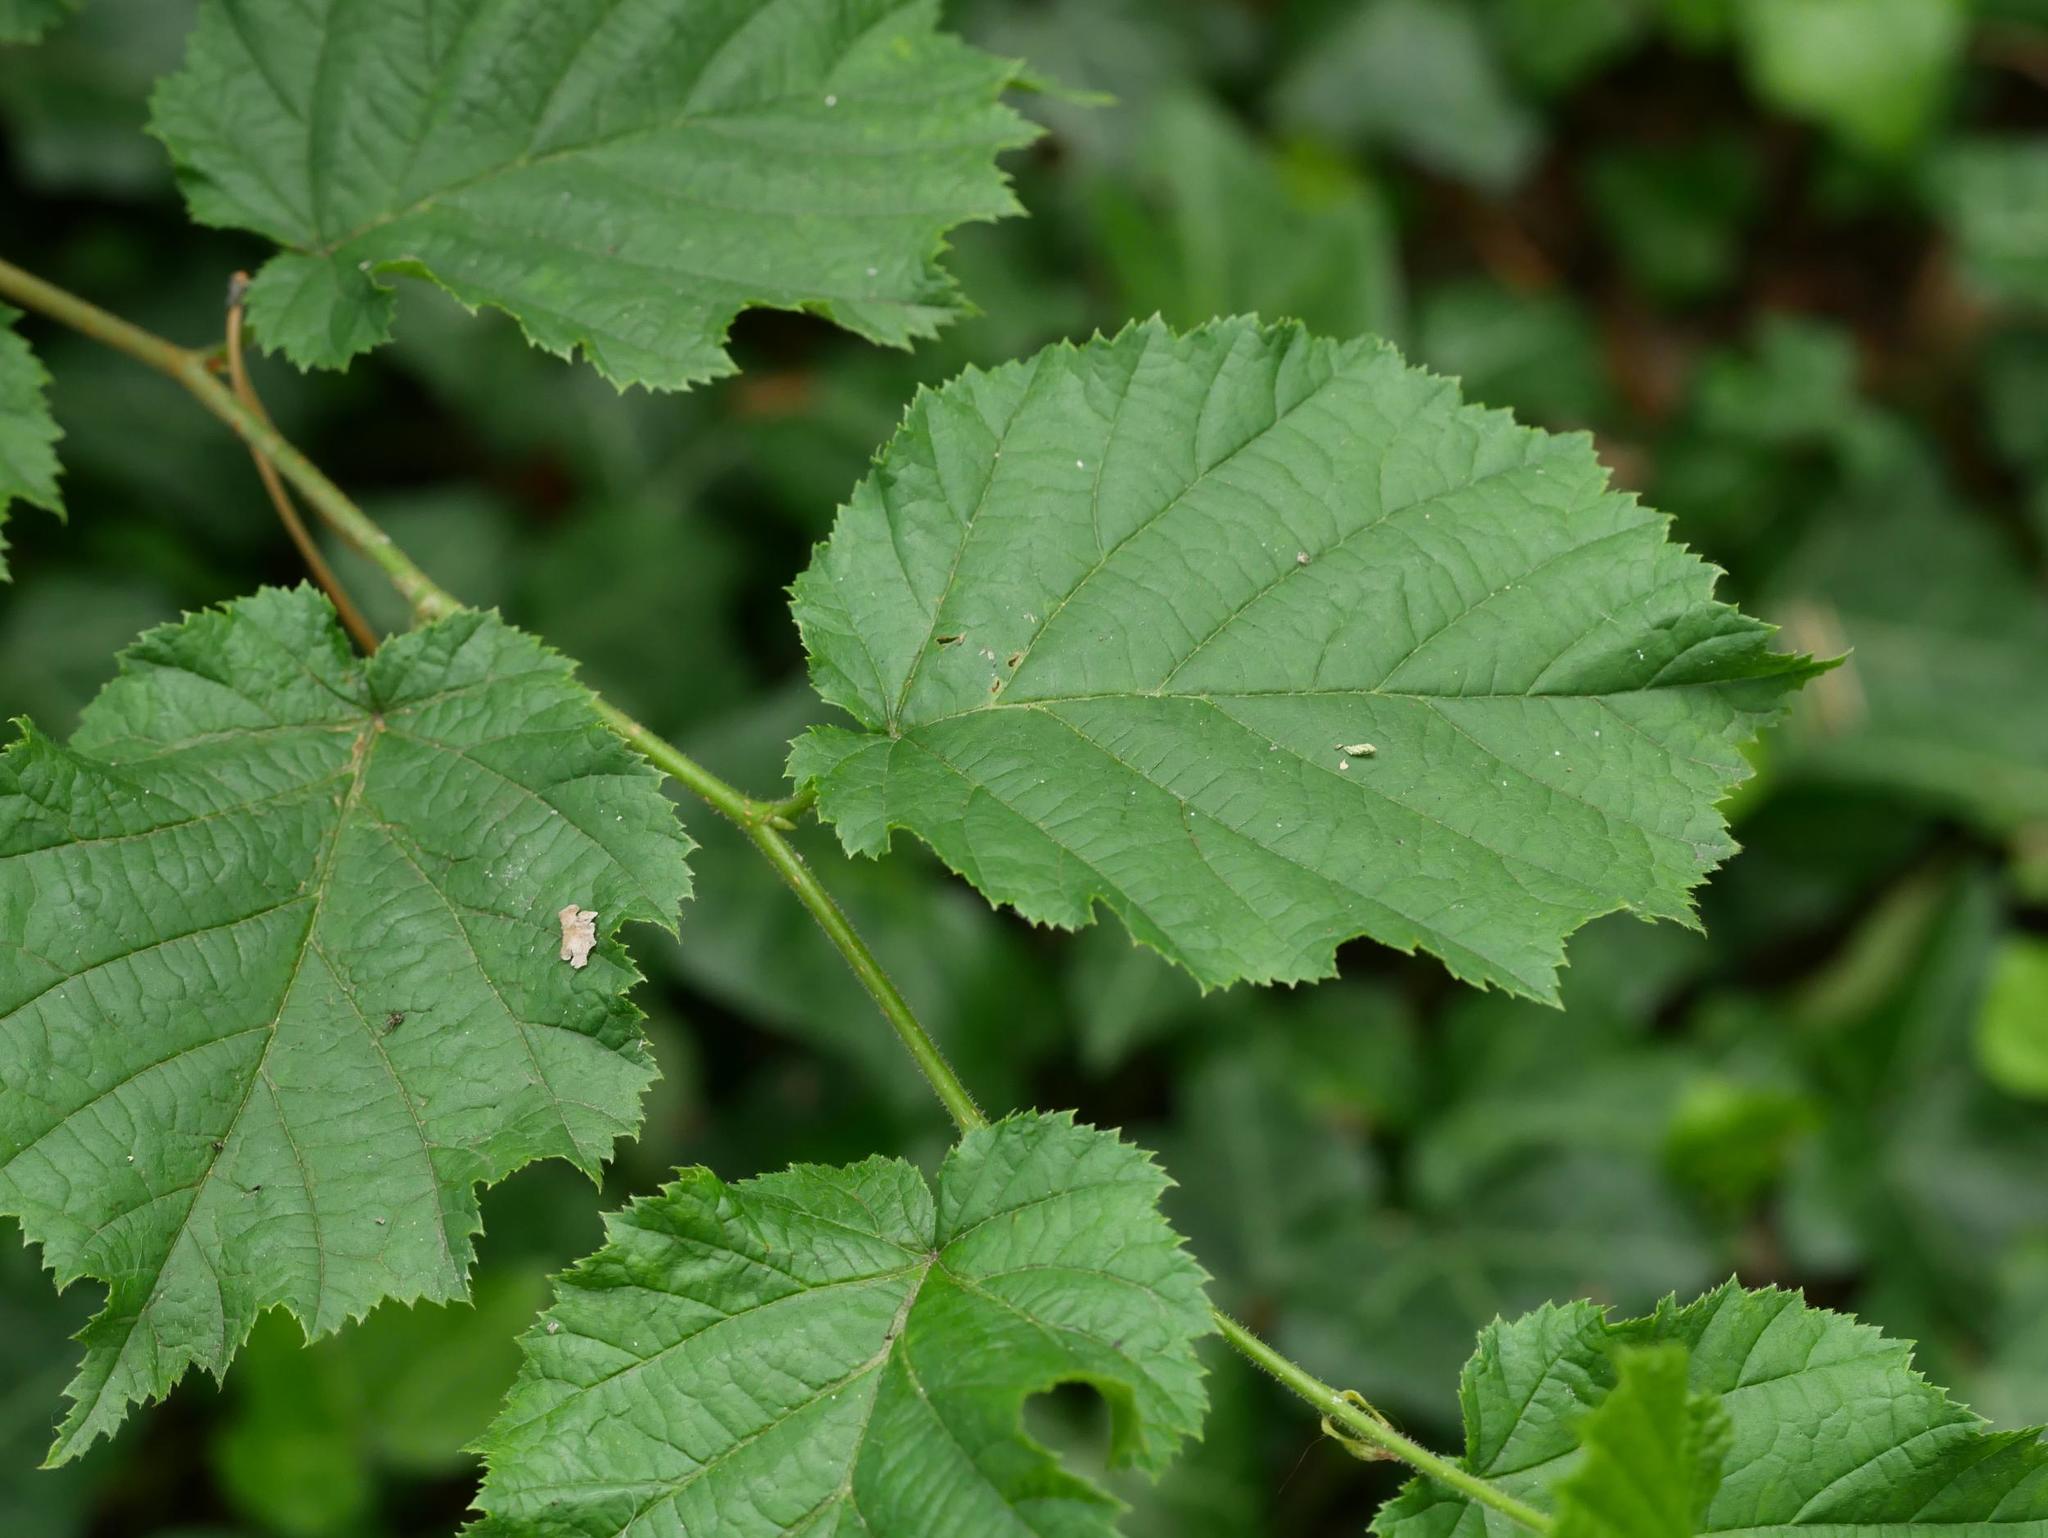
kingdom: Plantae
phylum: Tracheophyta
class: Magnoliopsida
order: Fagales
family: Betulaceae
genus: Corylus
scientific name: Corylus avellana
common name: European hazel
